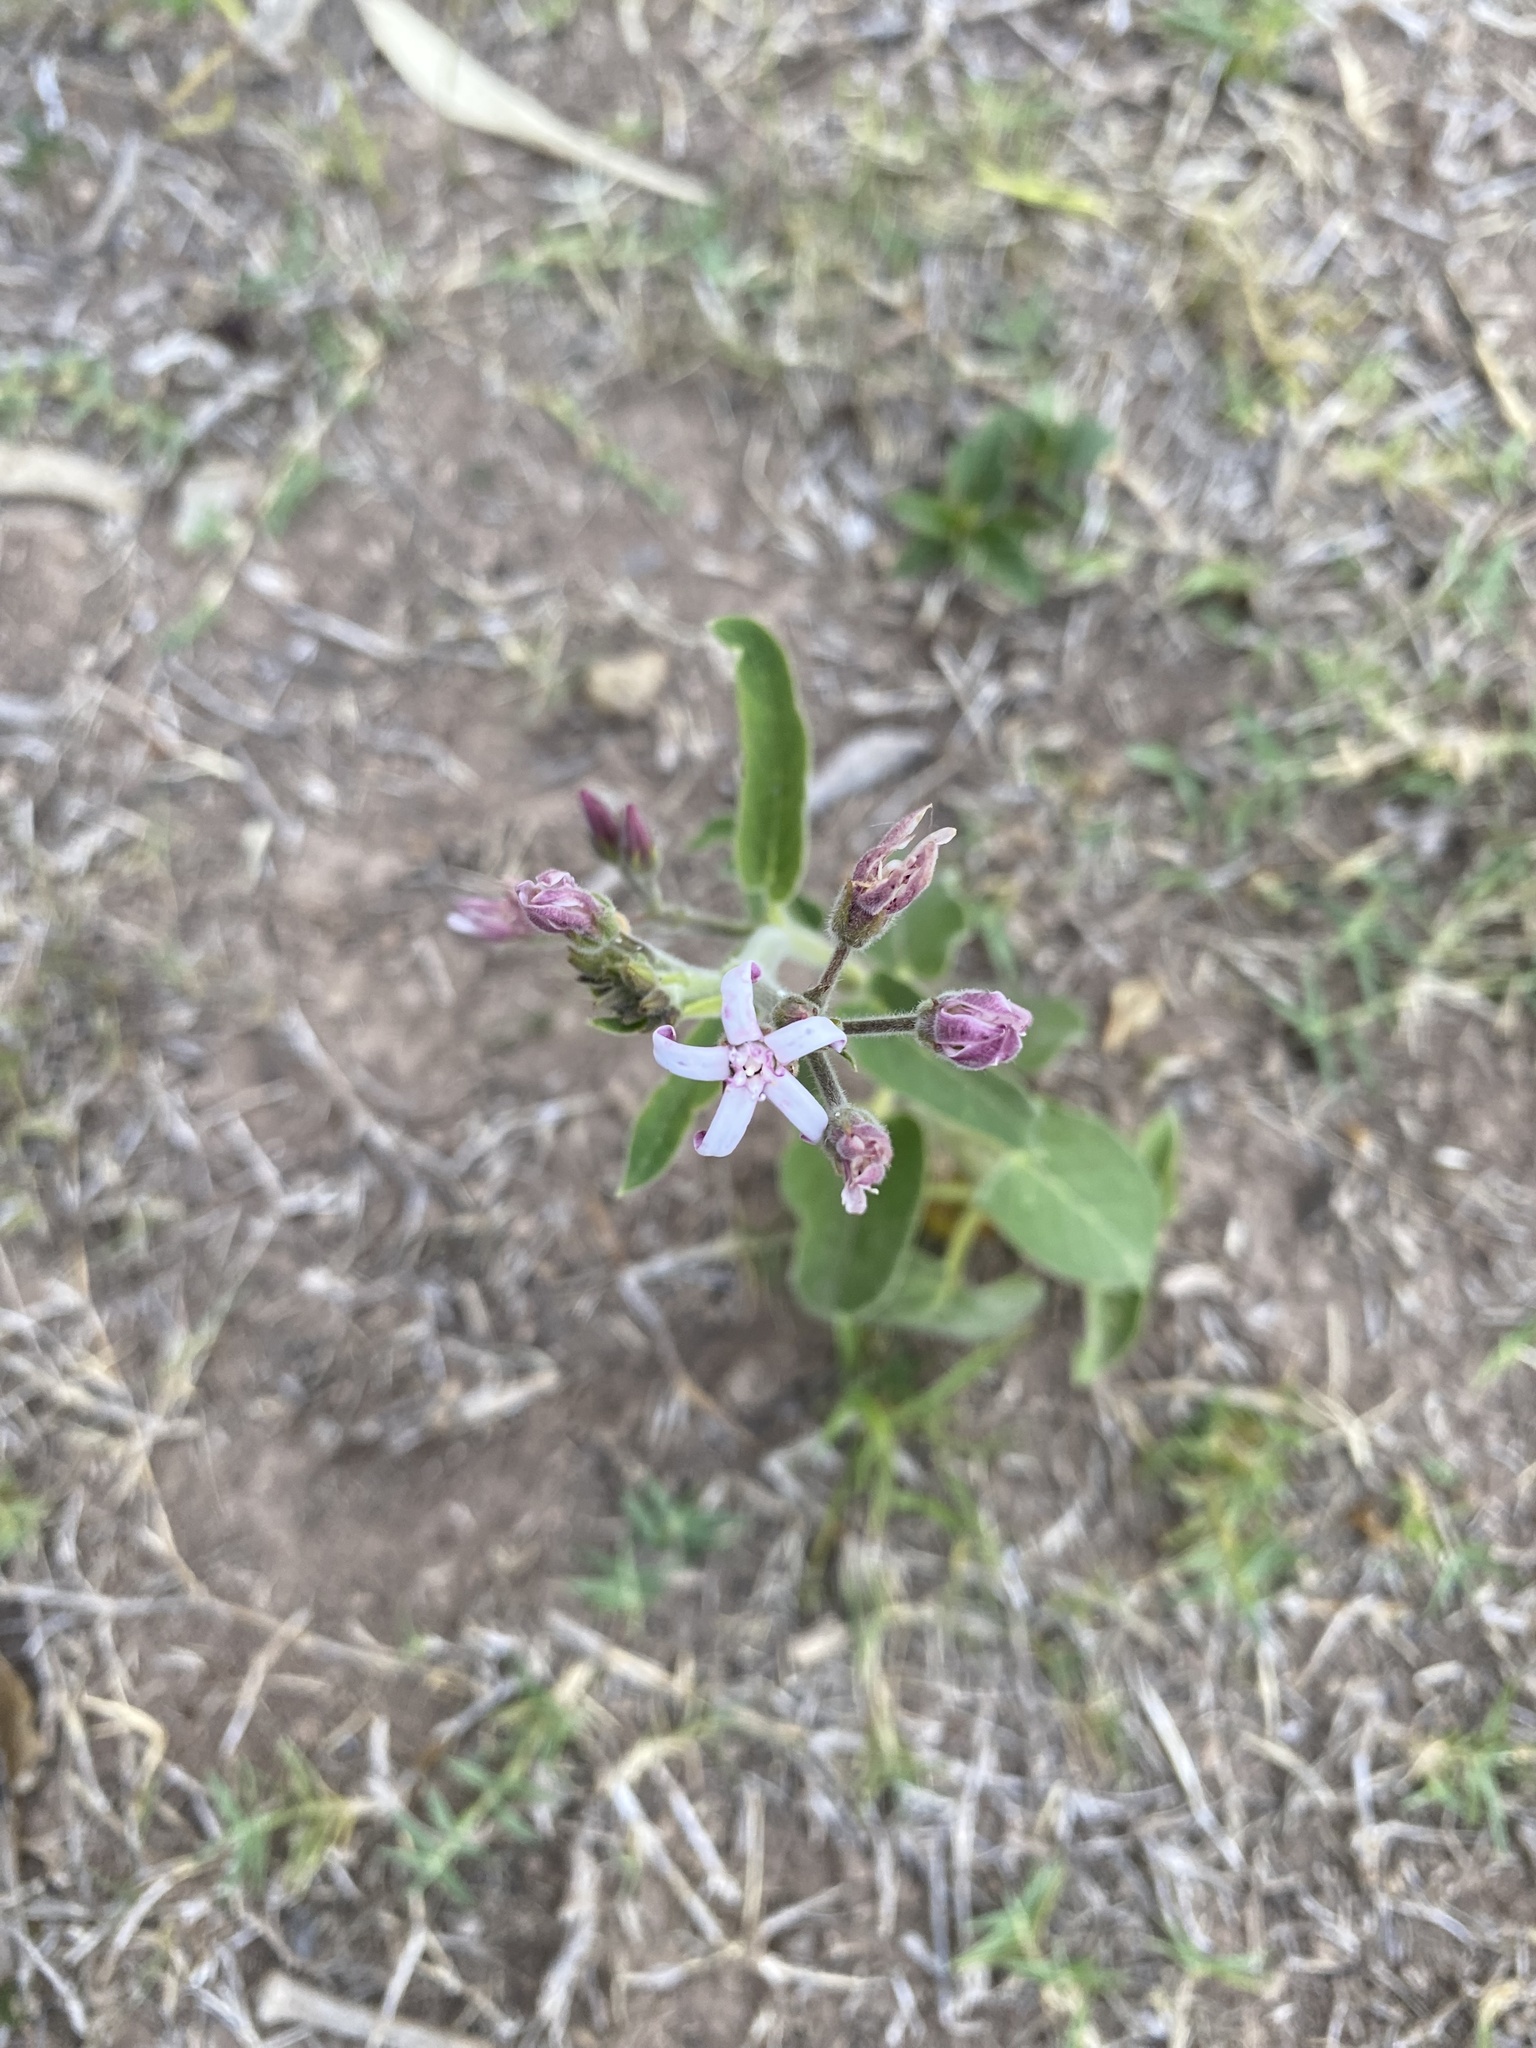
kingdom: Plantae
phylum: Tracheophyta
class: Magnoliopsida
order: Gentianales
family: Apocynaceae
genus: Oxypetalum
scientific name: Oxypetalum solanoides
